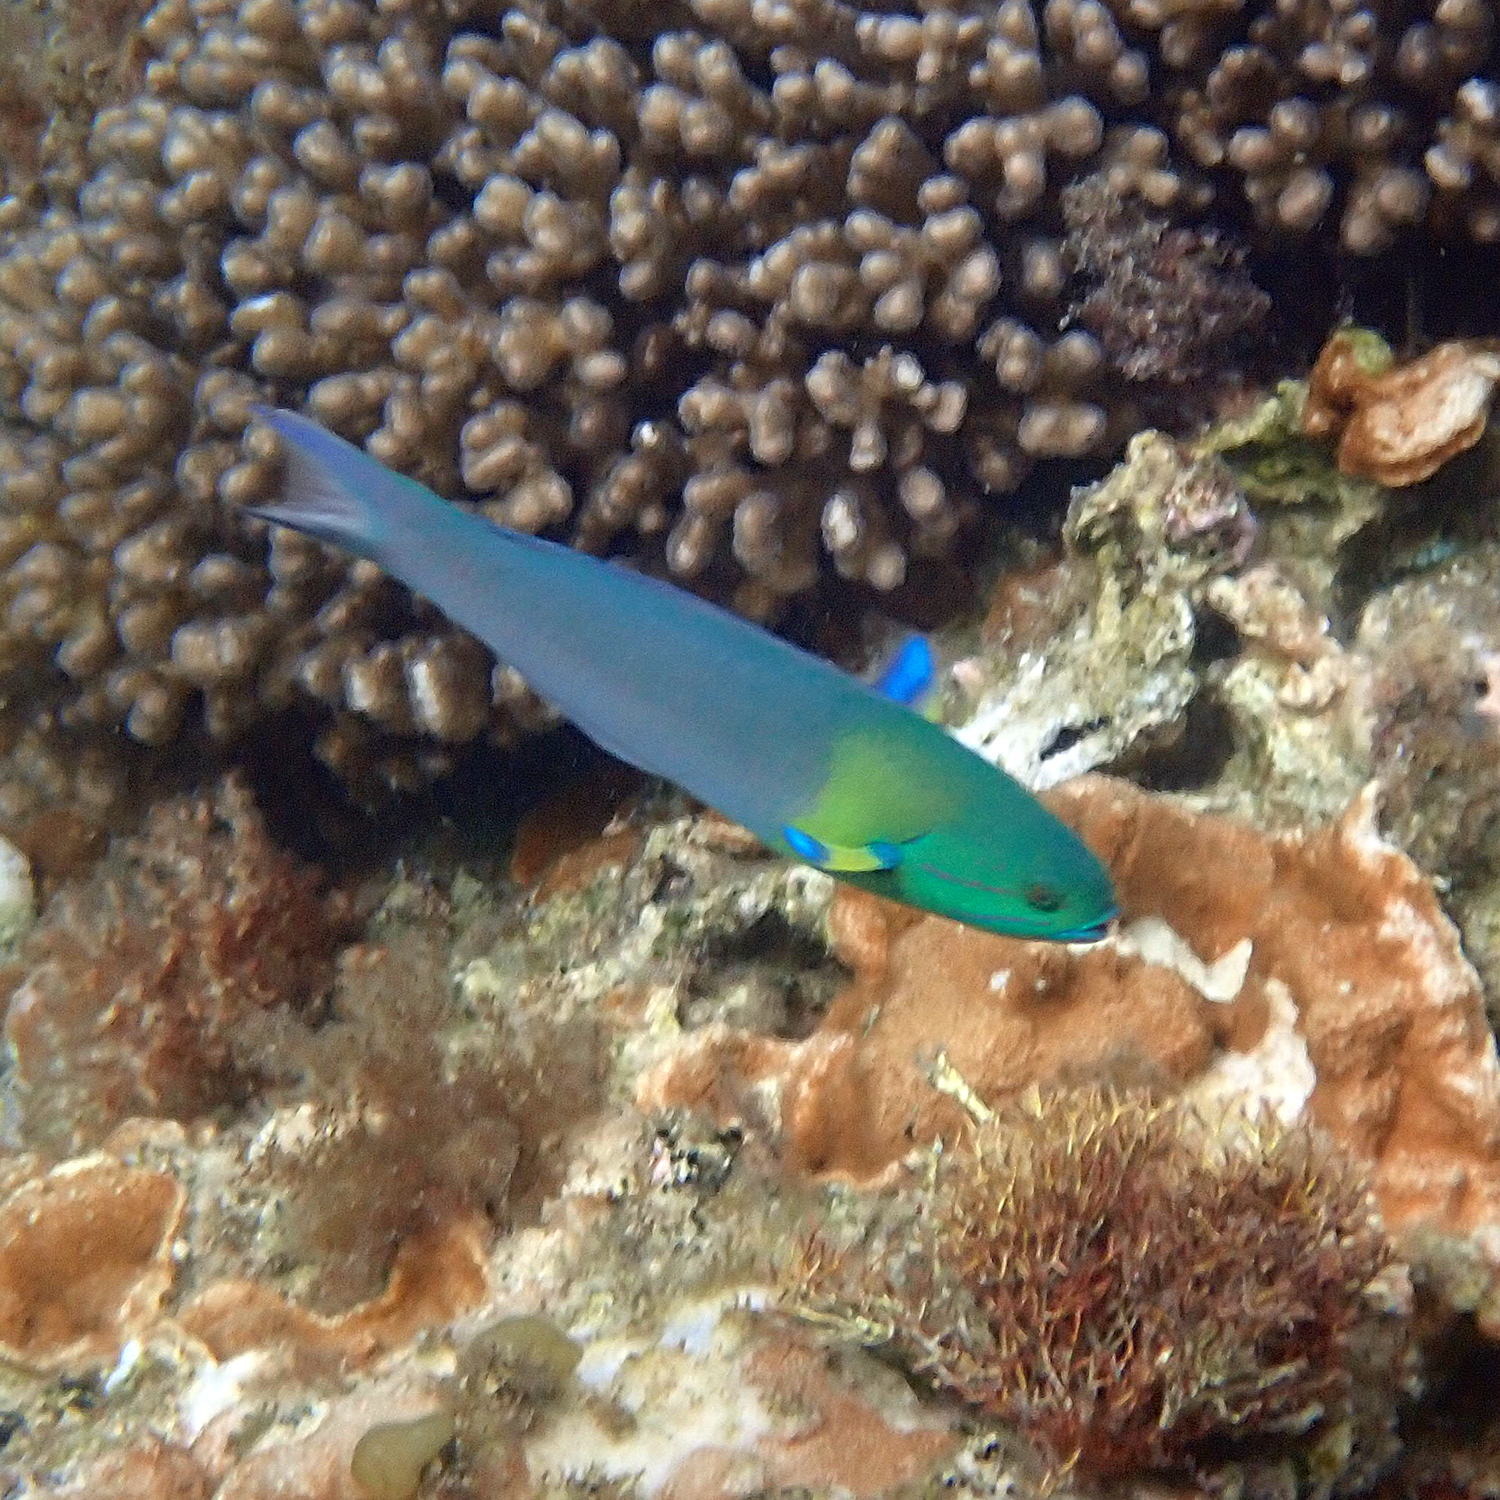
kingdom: Animalia
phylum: Chordata
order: Perciformes
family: Labridae
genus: Thalassoma
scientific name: Thalassoma amblycephalum
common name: Bluehead wrasse
